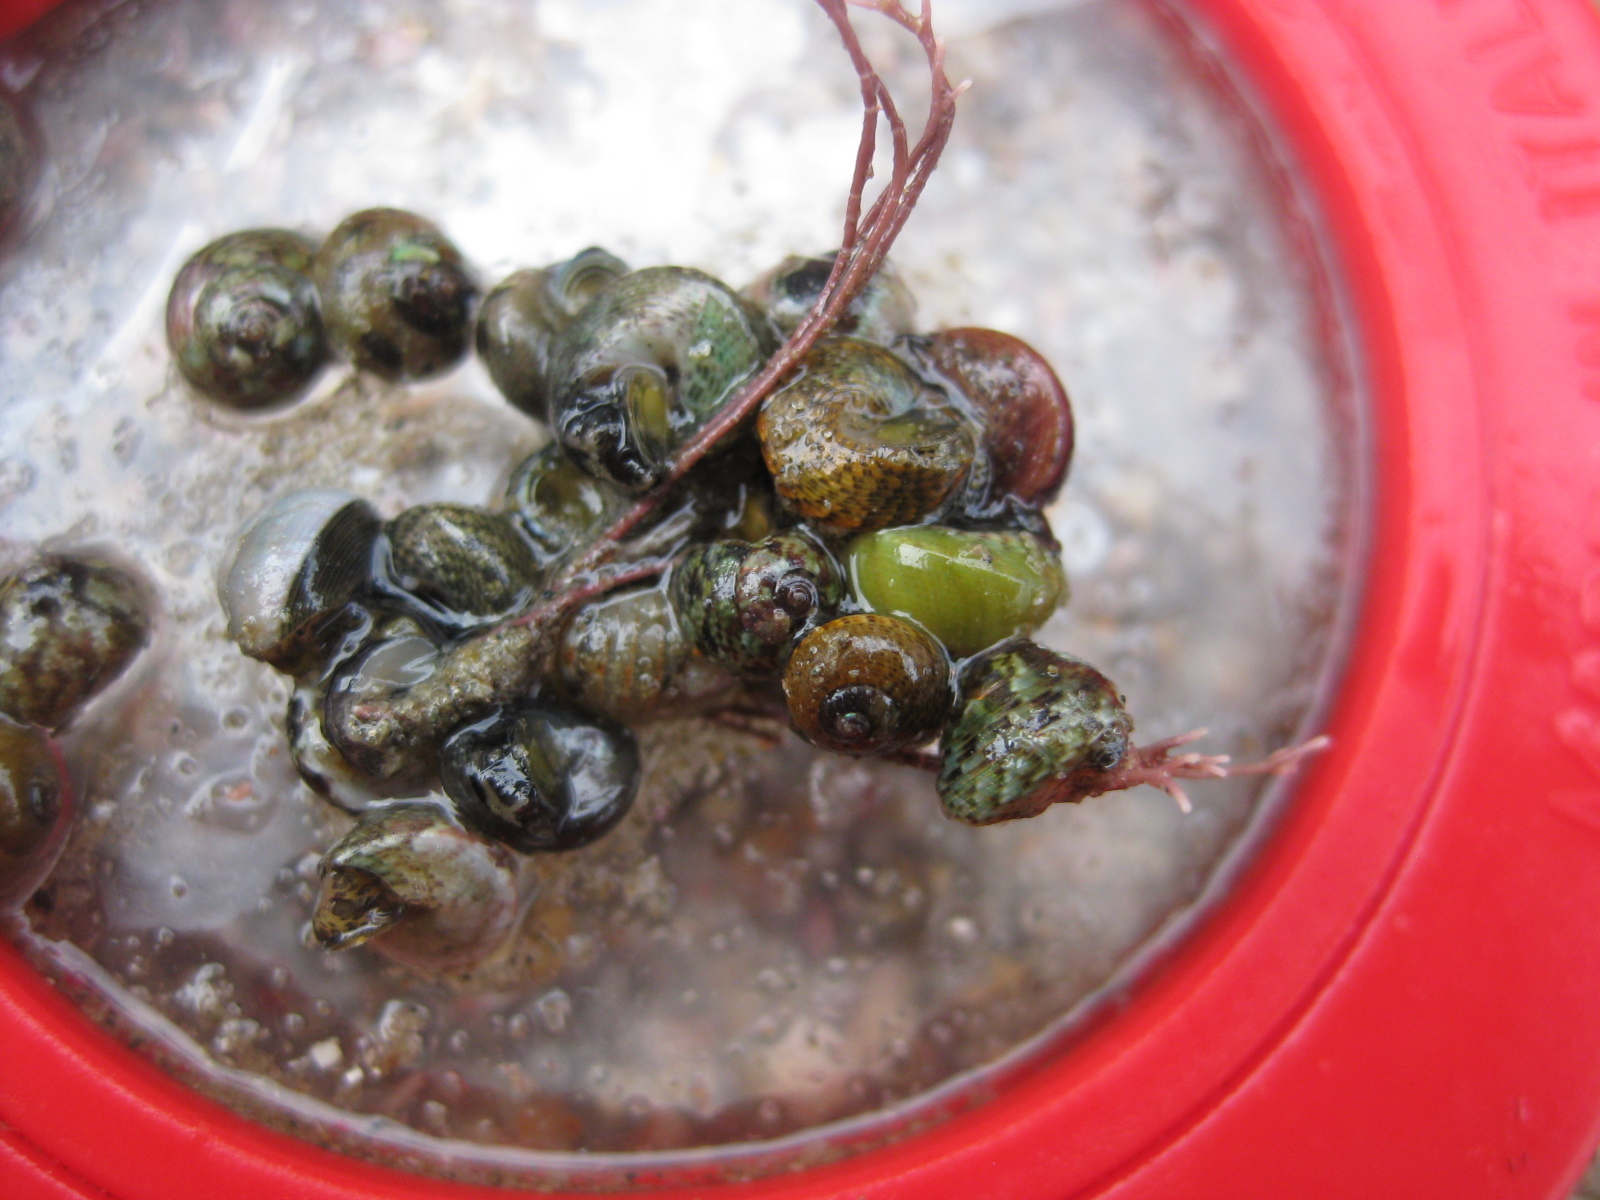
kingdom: Animalia
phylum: Mollusca
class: Gastropoda
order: Trochida
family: Trochidae
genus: Micrelenchus
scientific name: Micrelenchus tessellatus
